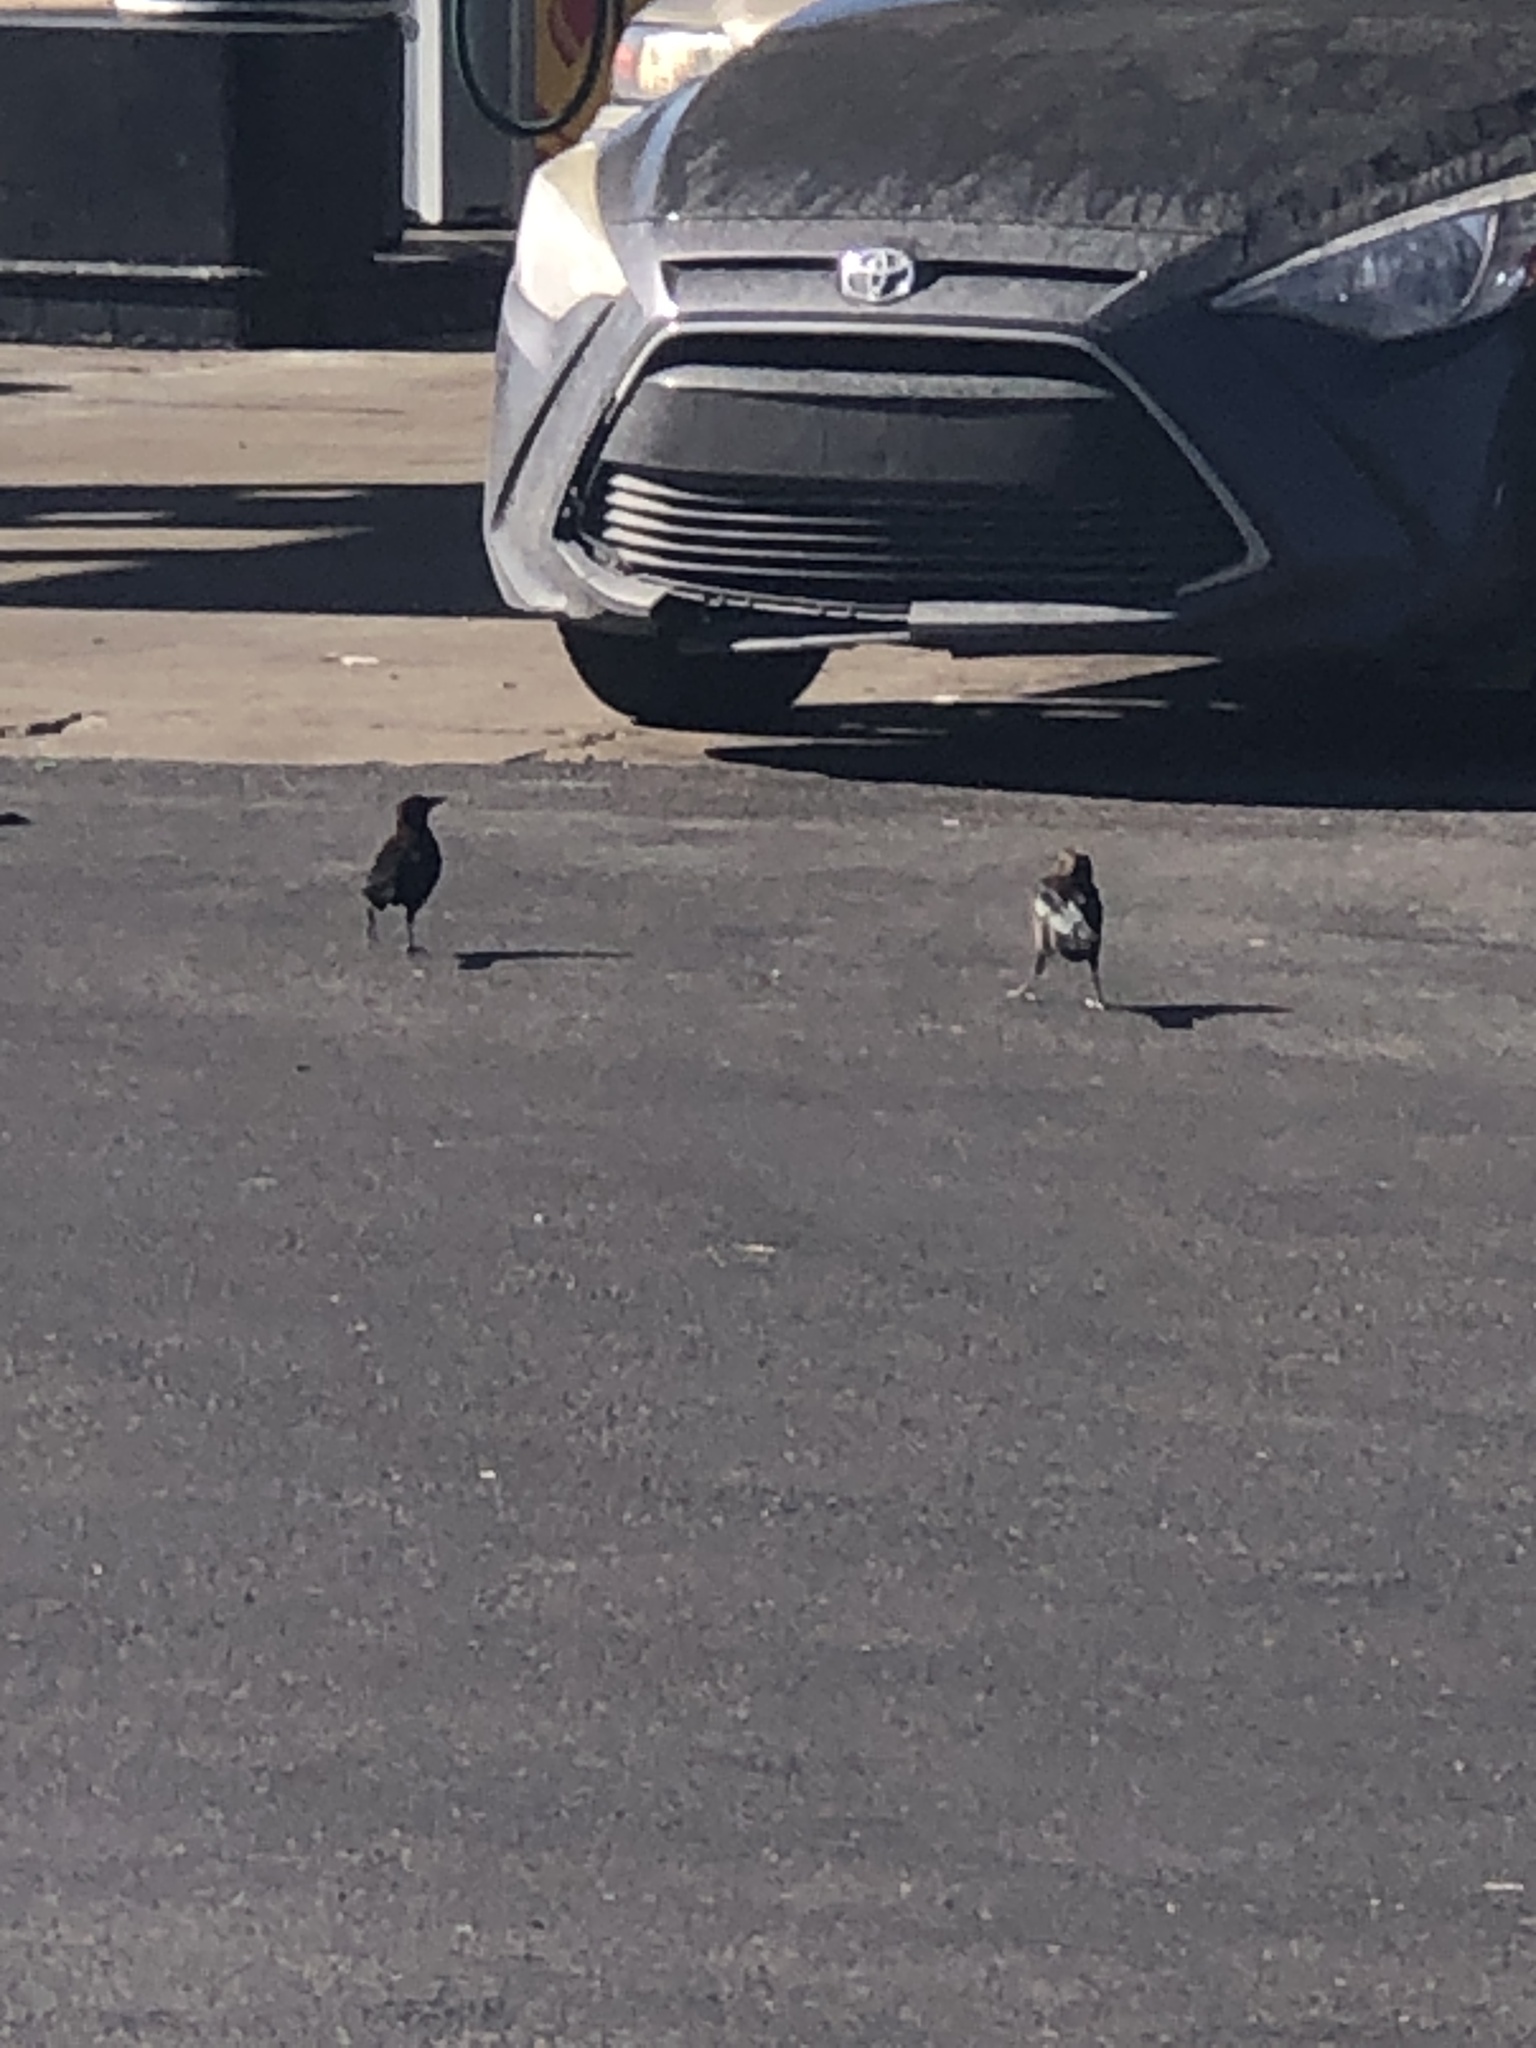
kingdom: Animalia
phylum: Chordata
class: Aves
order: Passeriformes
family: Icteridae
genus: Quiscalus
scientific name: Quiscalus mexicanus
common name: Great-tailed grackle
